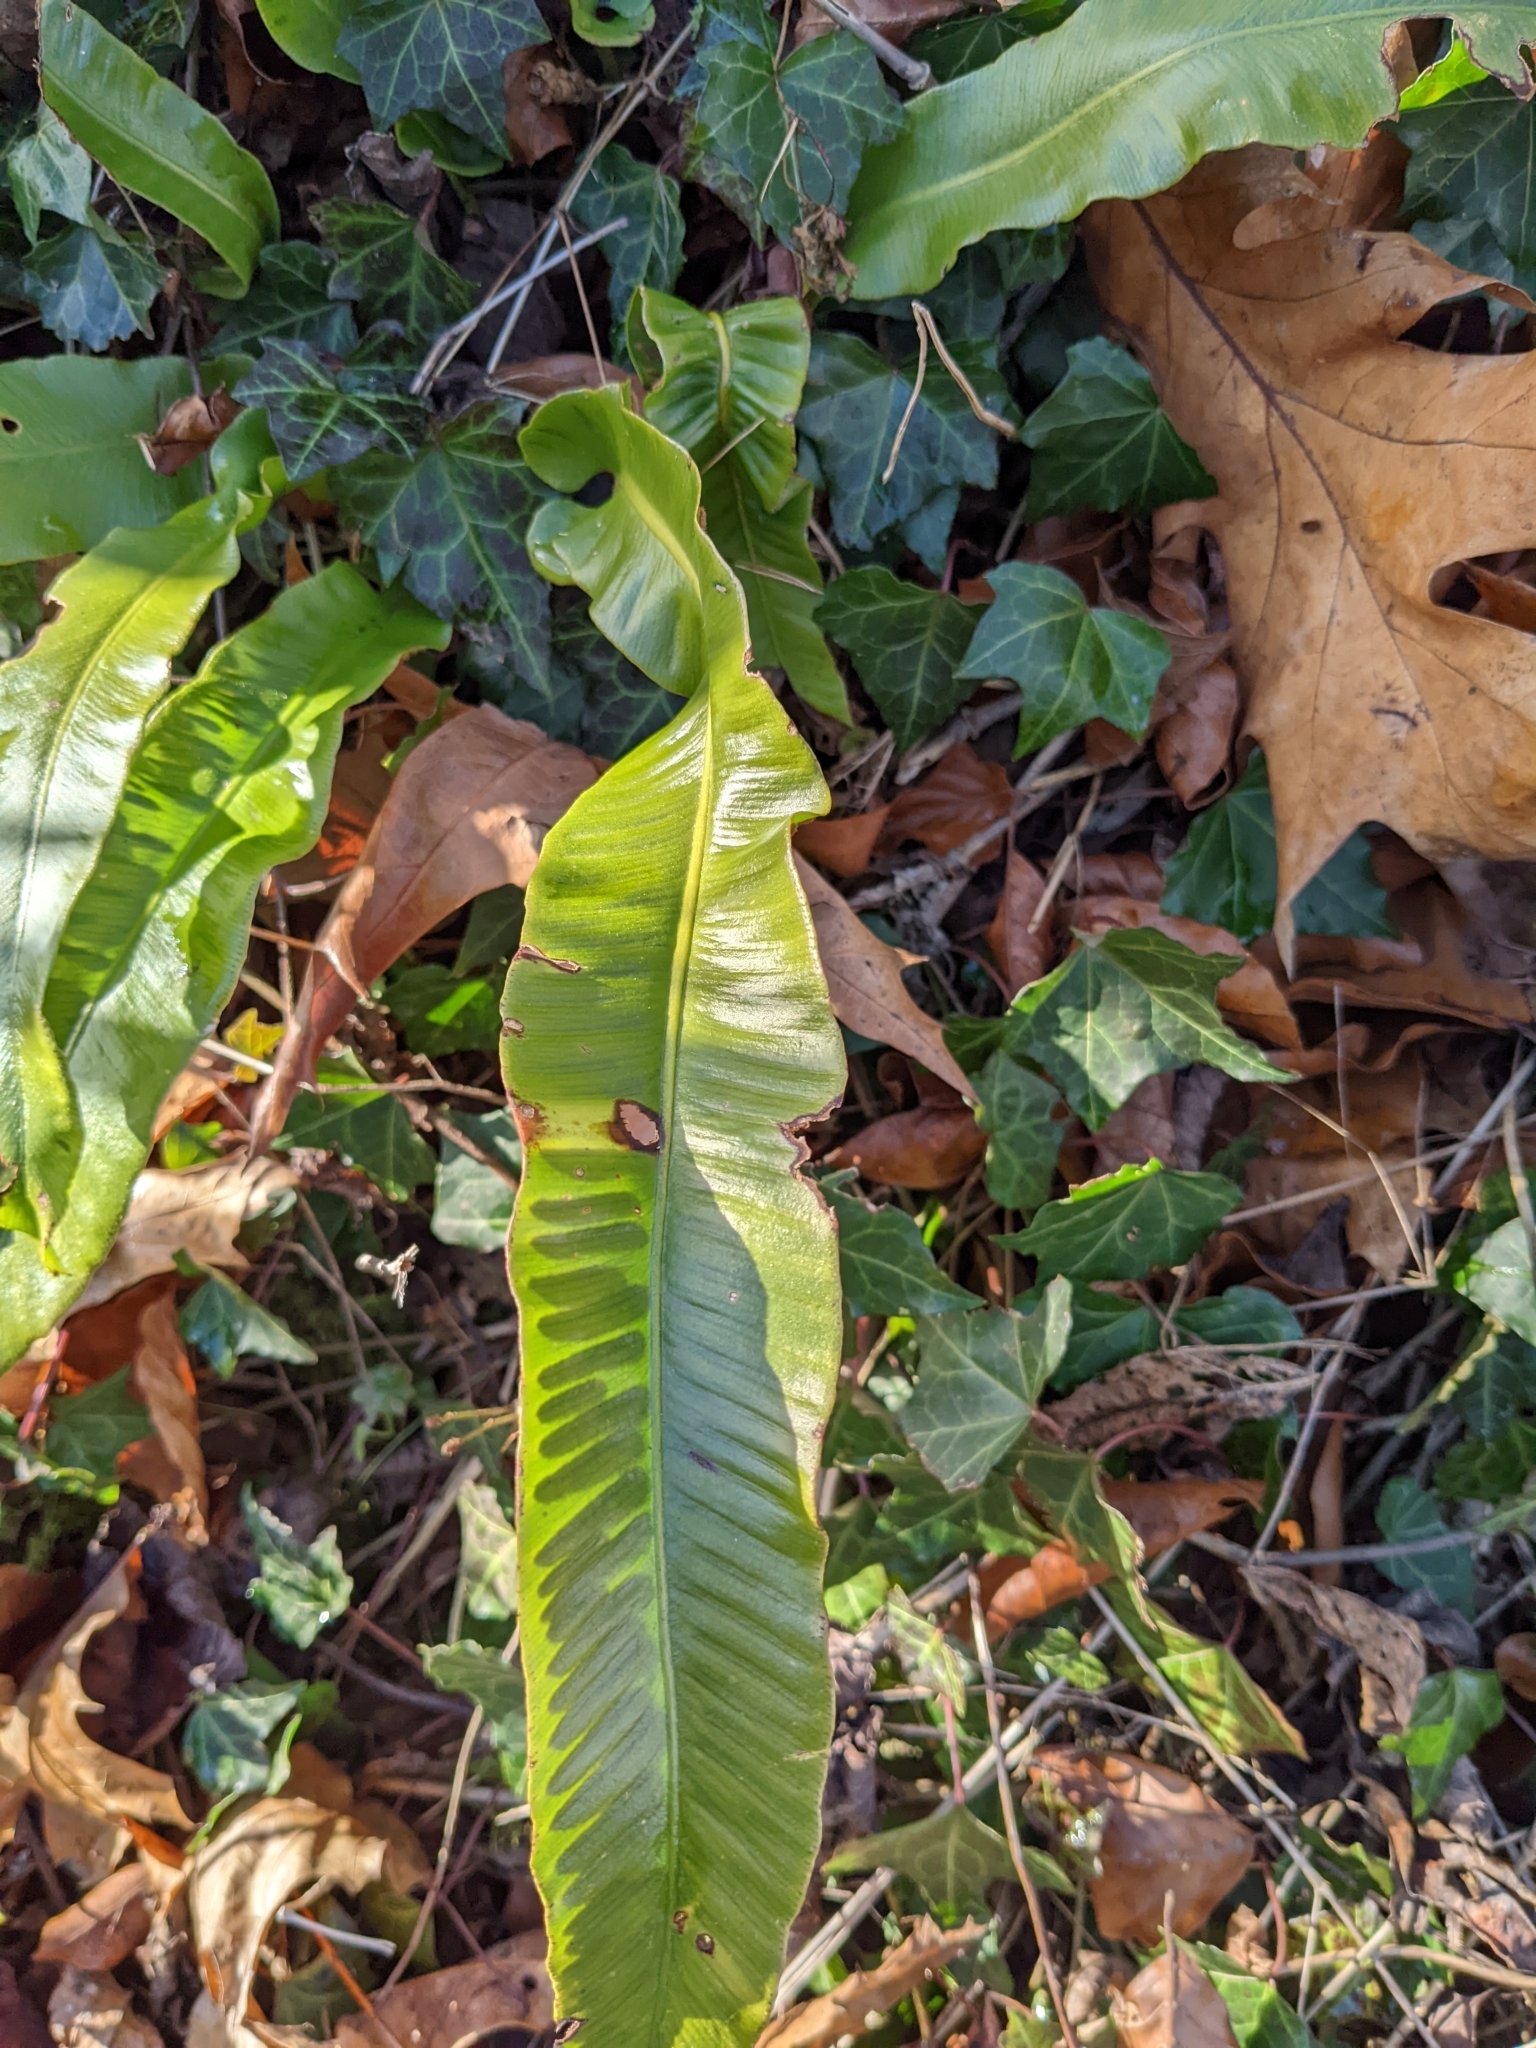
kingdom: Plantae
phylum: Tracheophyta
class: Polypodiopsida
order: Polypodiales
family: Aspleniaceae
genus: Asplenium
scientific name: Asplenium scolopendrium
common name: Hart's-tongue fern
